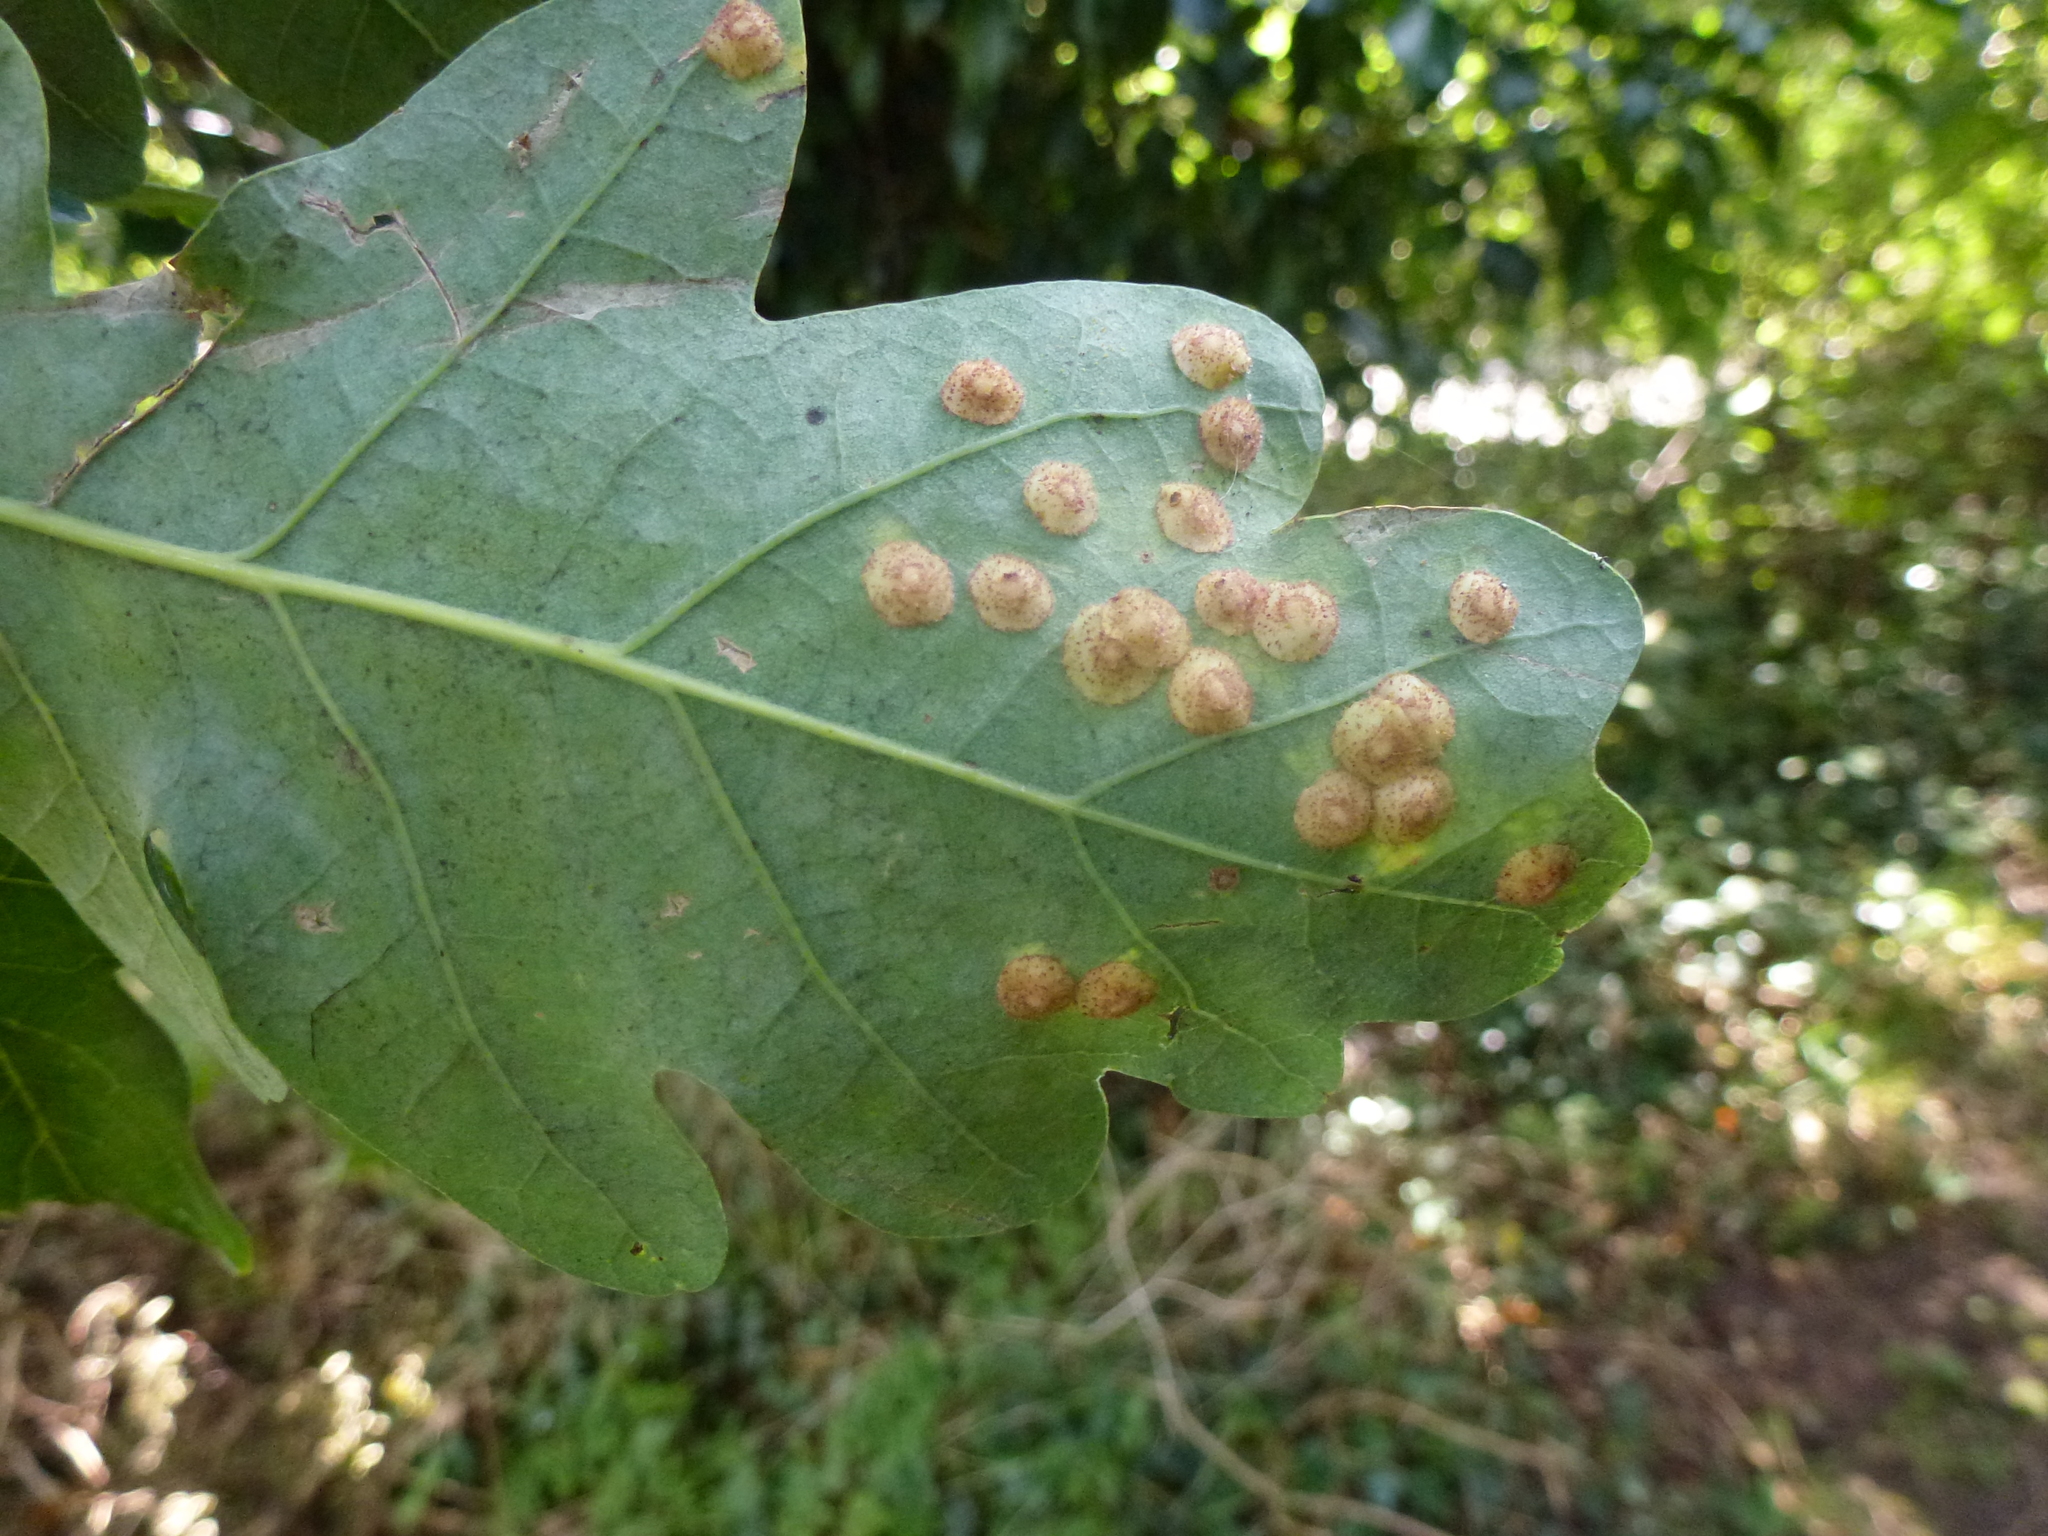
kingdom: Animalia
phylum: Arthropoda
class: Insecta
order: Hymenoptera
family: Cynipidae
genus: Neuroterus
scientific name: Neuroterus quercusbaccarum
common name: Common spangle gall
